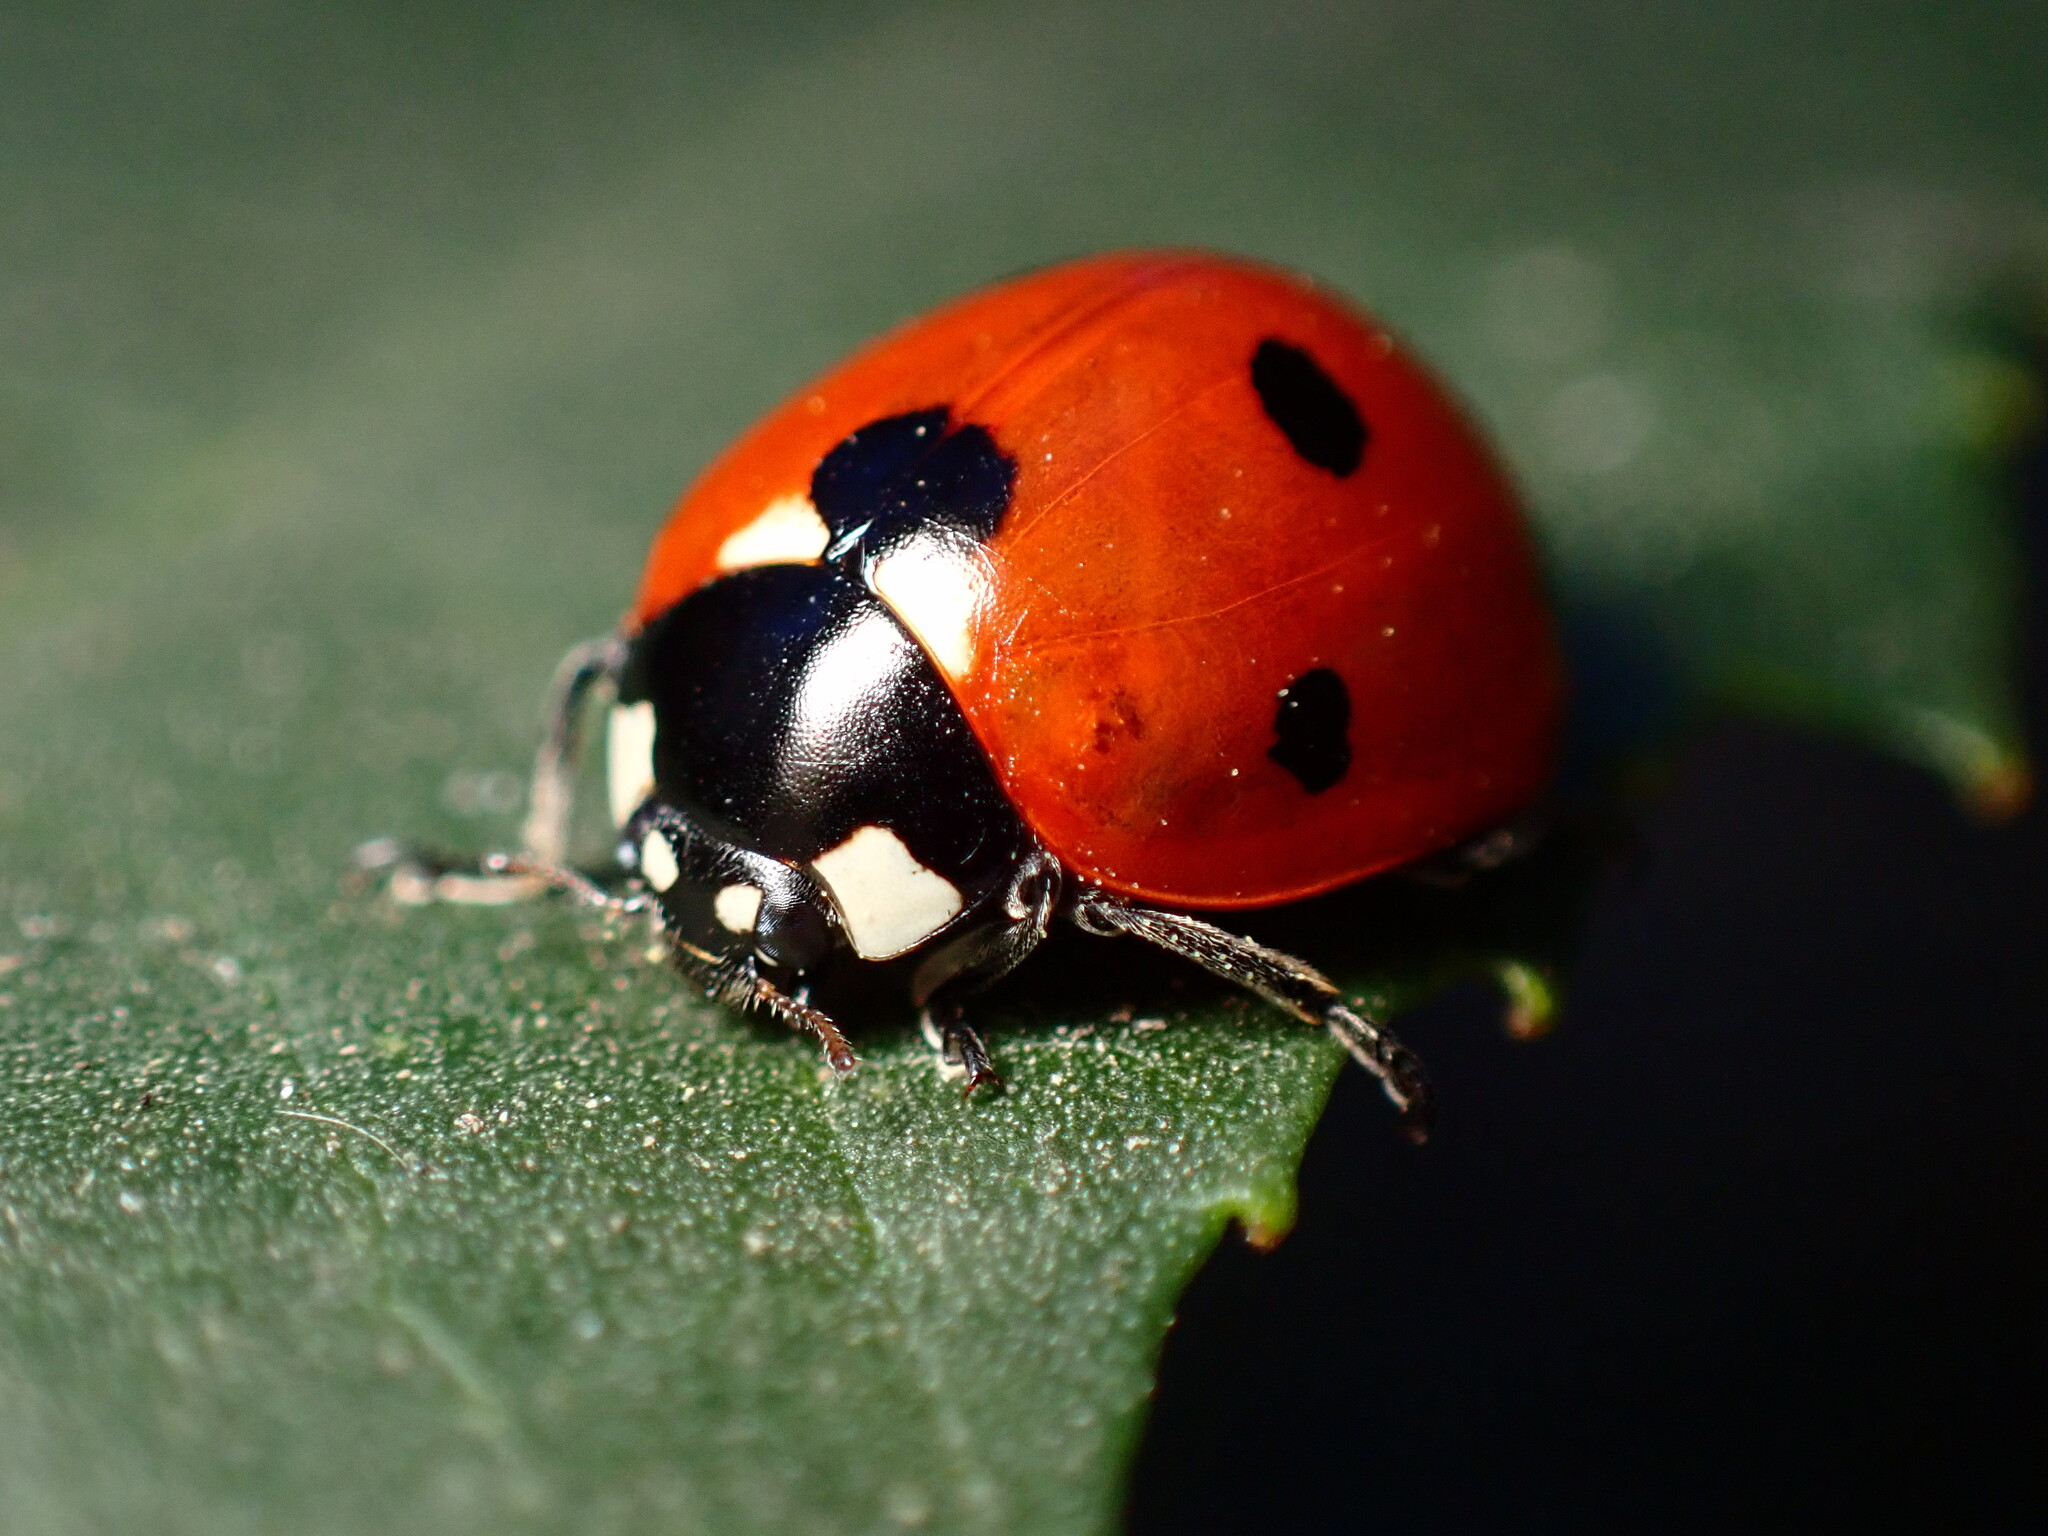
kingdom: Animalia
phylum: Arthropoda
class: Insecta
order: Coleoptera
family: Coccinellidae
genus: Coccinella
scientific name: Coccinella septempunctata
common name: Sevenspotted lady beetle
